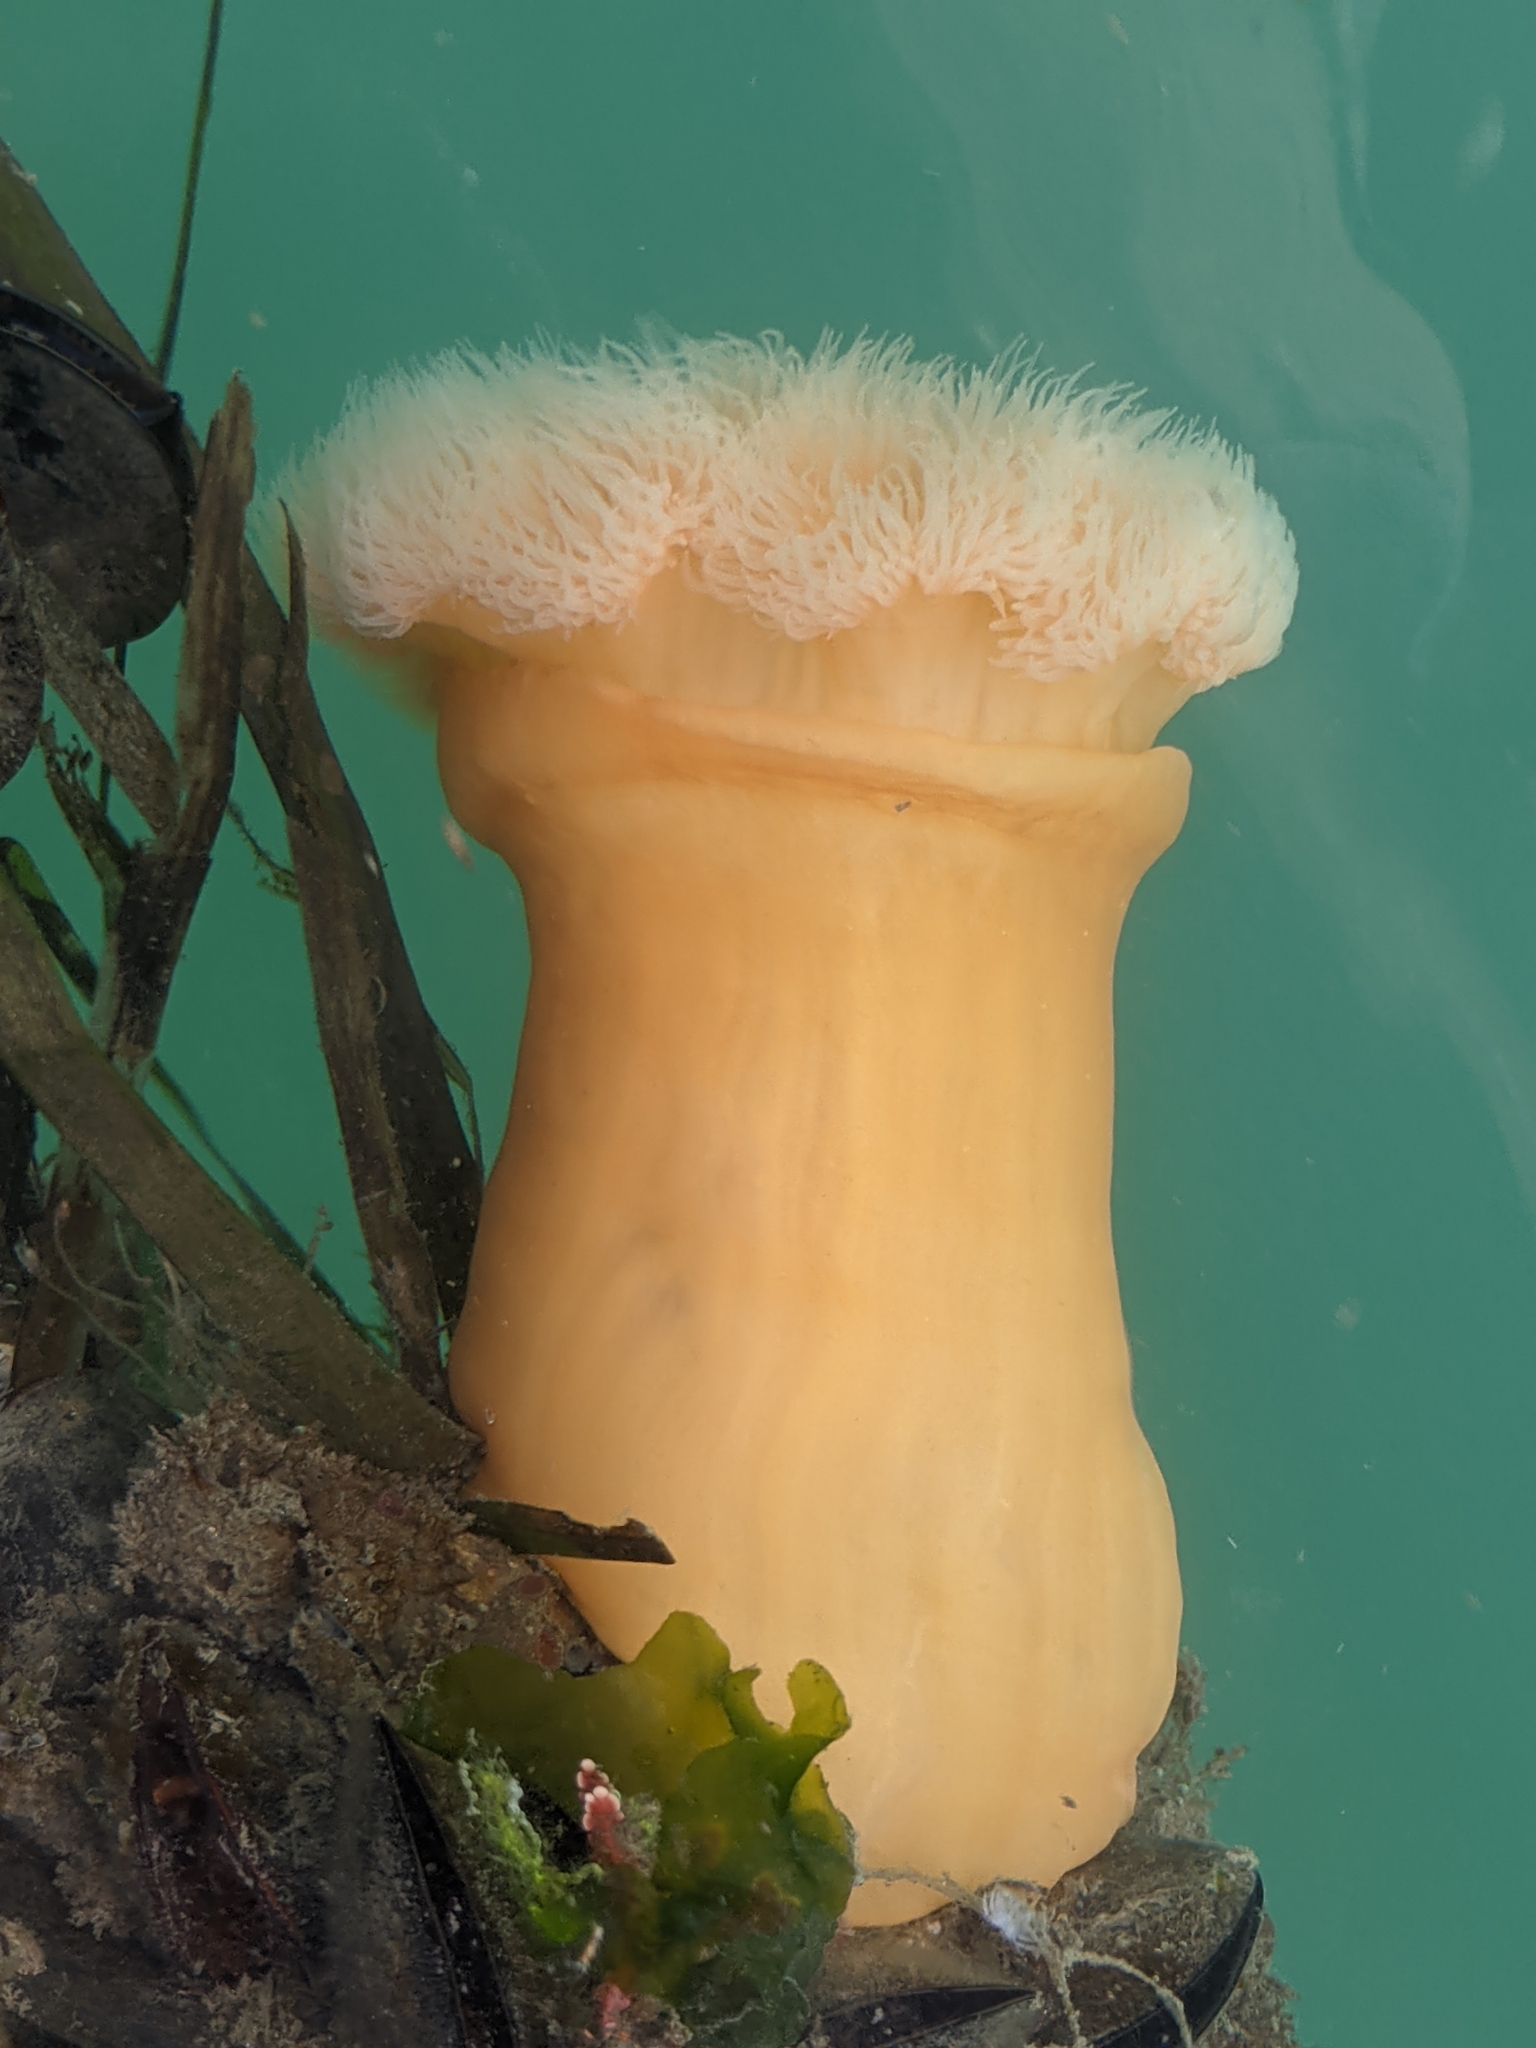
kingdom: Animalia
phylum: Cnidaria
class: Anthozoa
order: Actiniaria
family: Metridiidae
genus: Metridium
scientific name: Metridium farcimen
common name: Gigantic anemone
